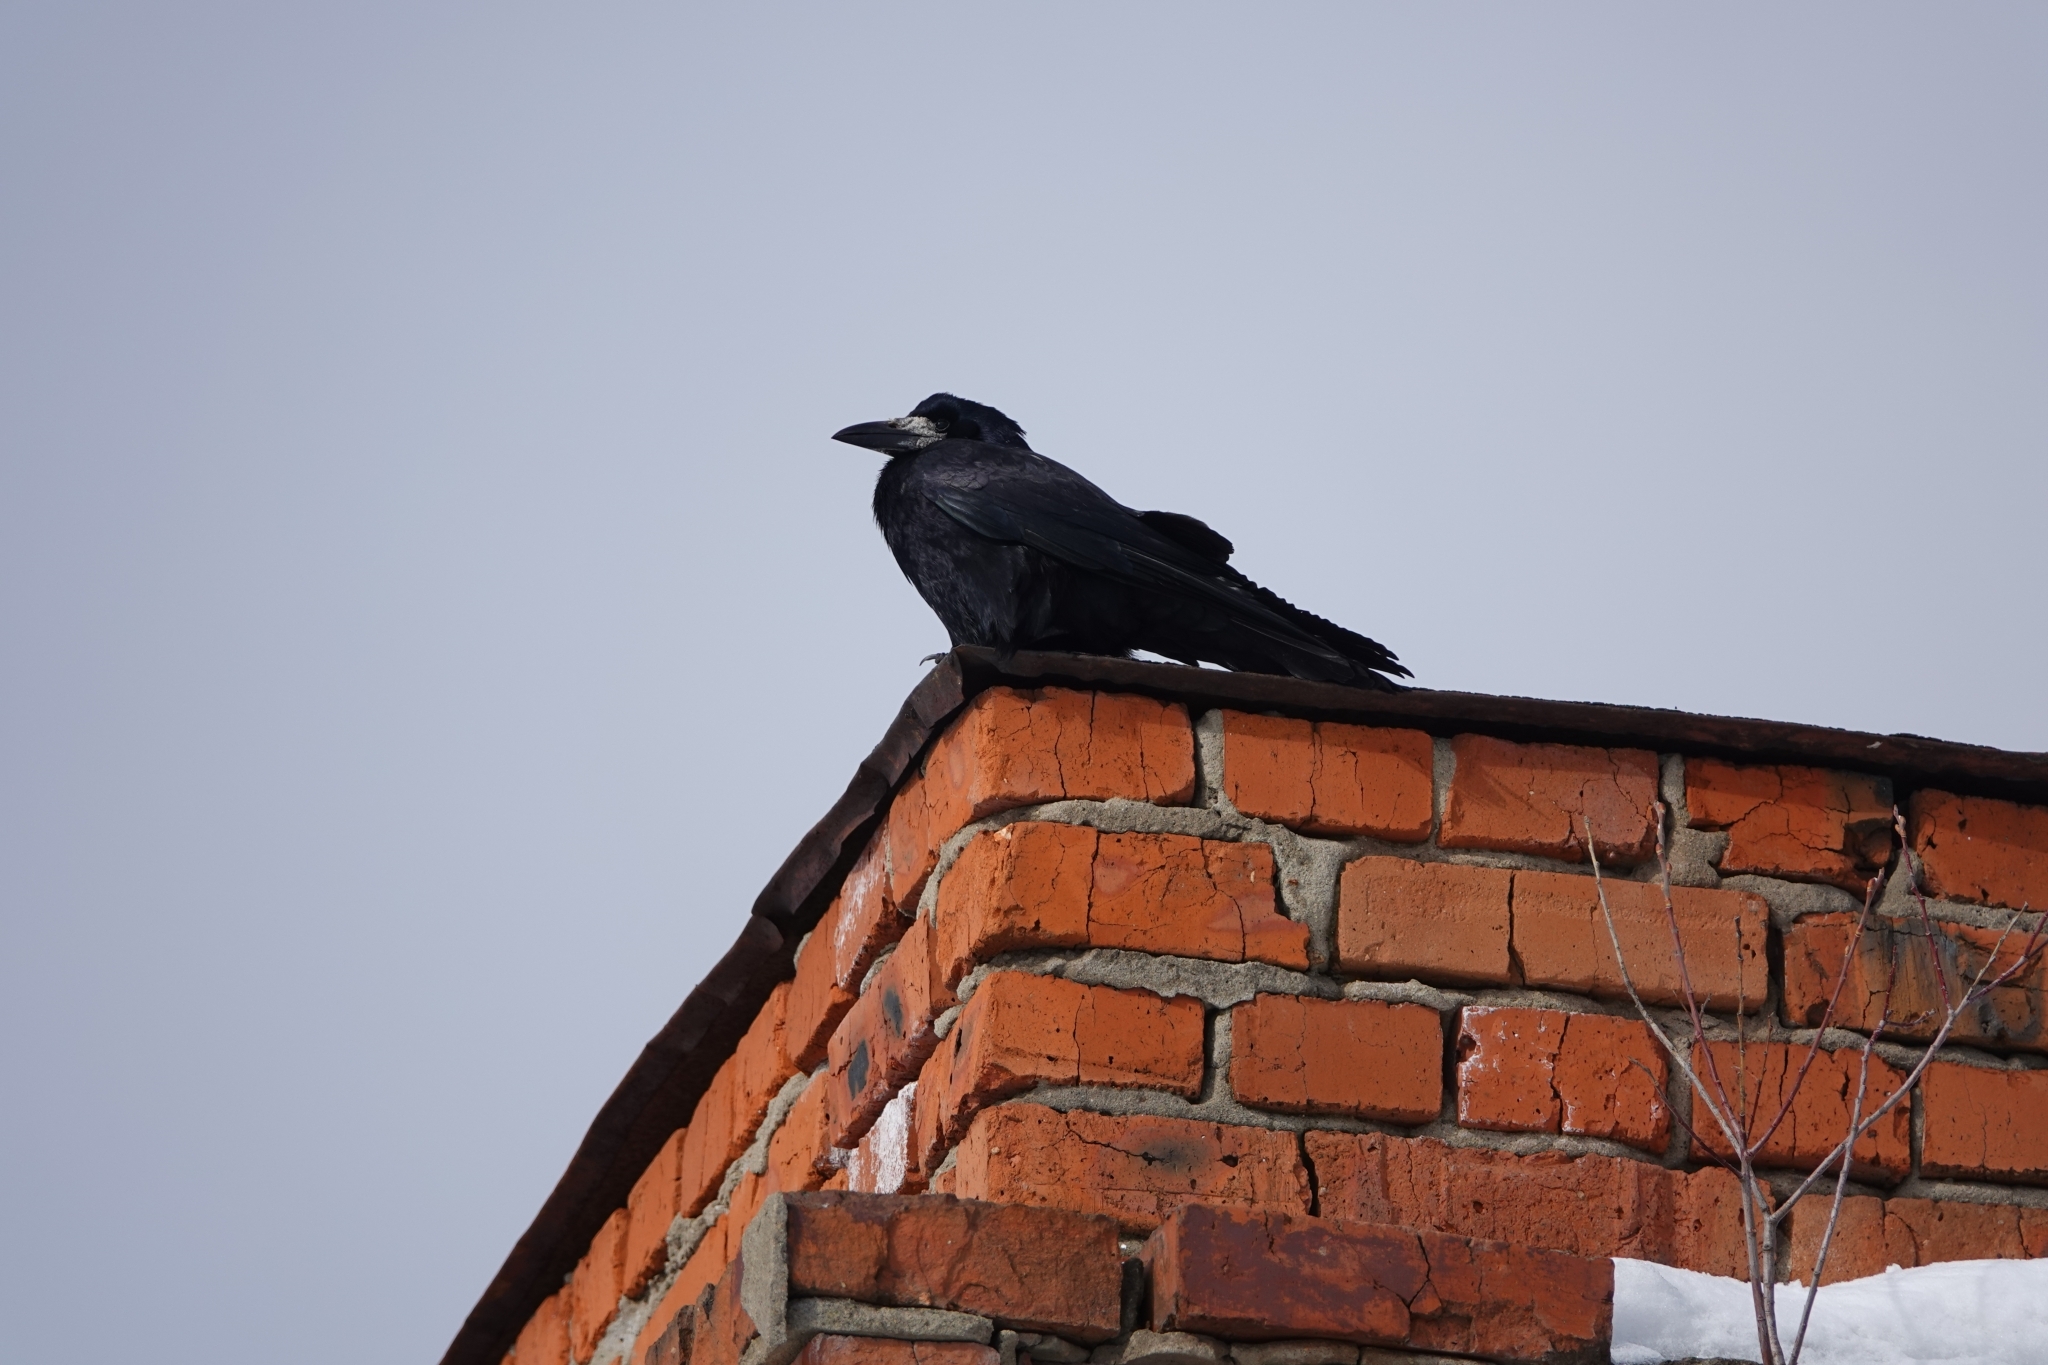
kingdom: Animalia
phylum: Chordata
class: Aves
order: Passeriformes
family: Corvidae
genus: Corvus
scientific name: Corvus frugilegus
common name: Rook
